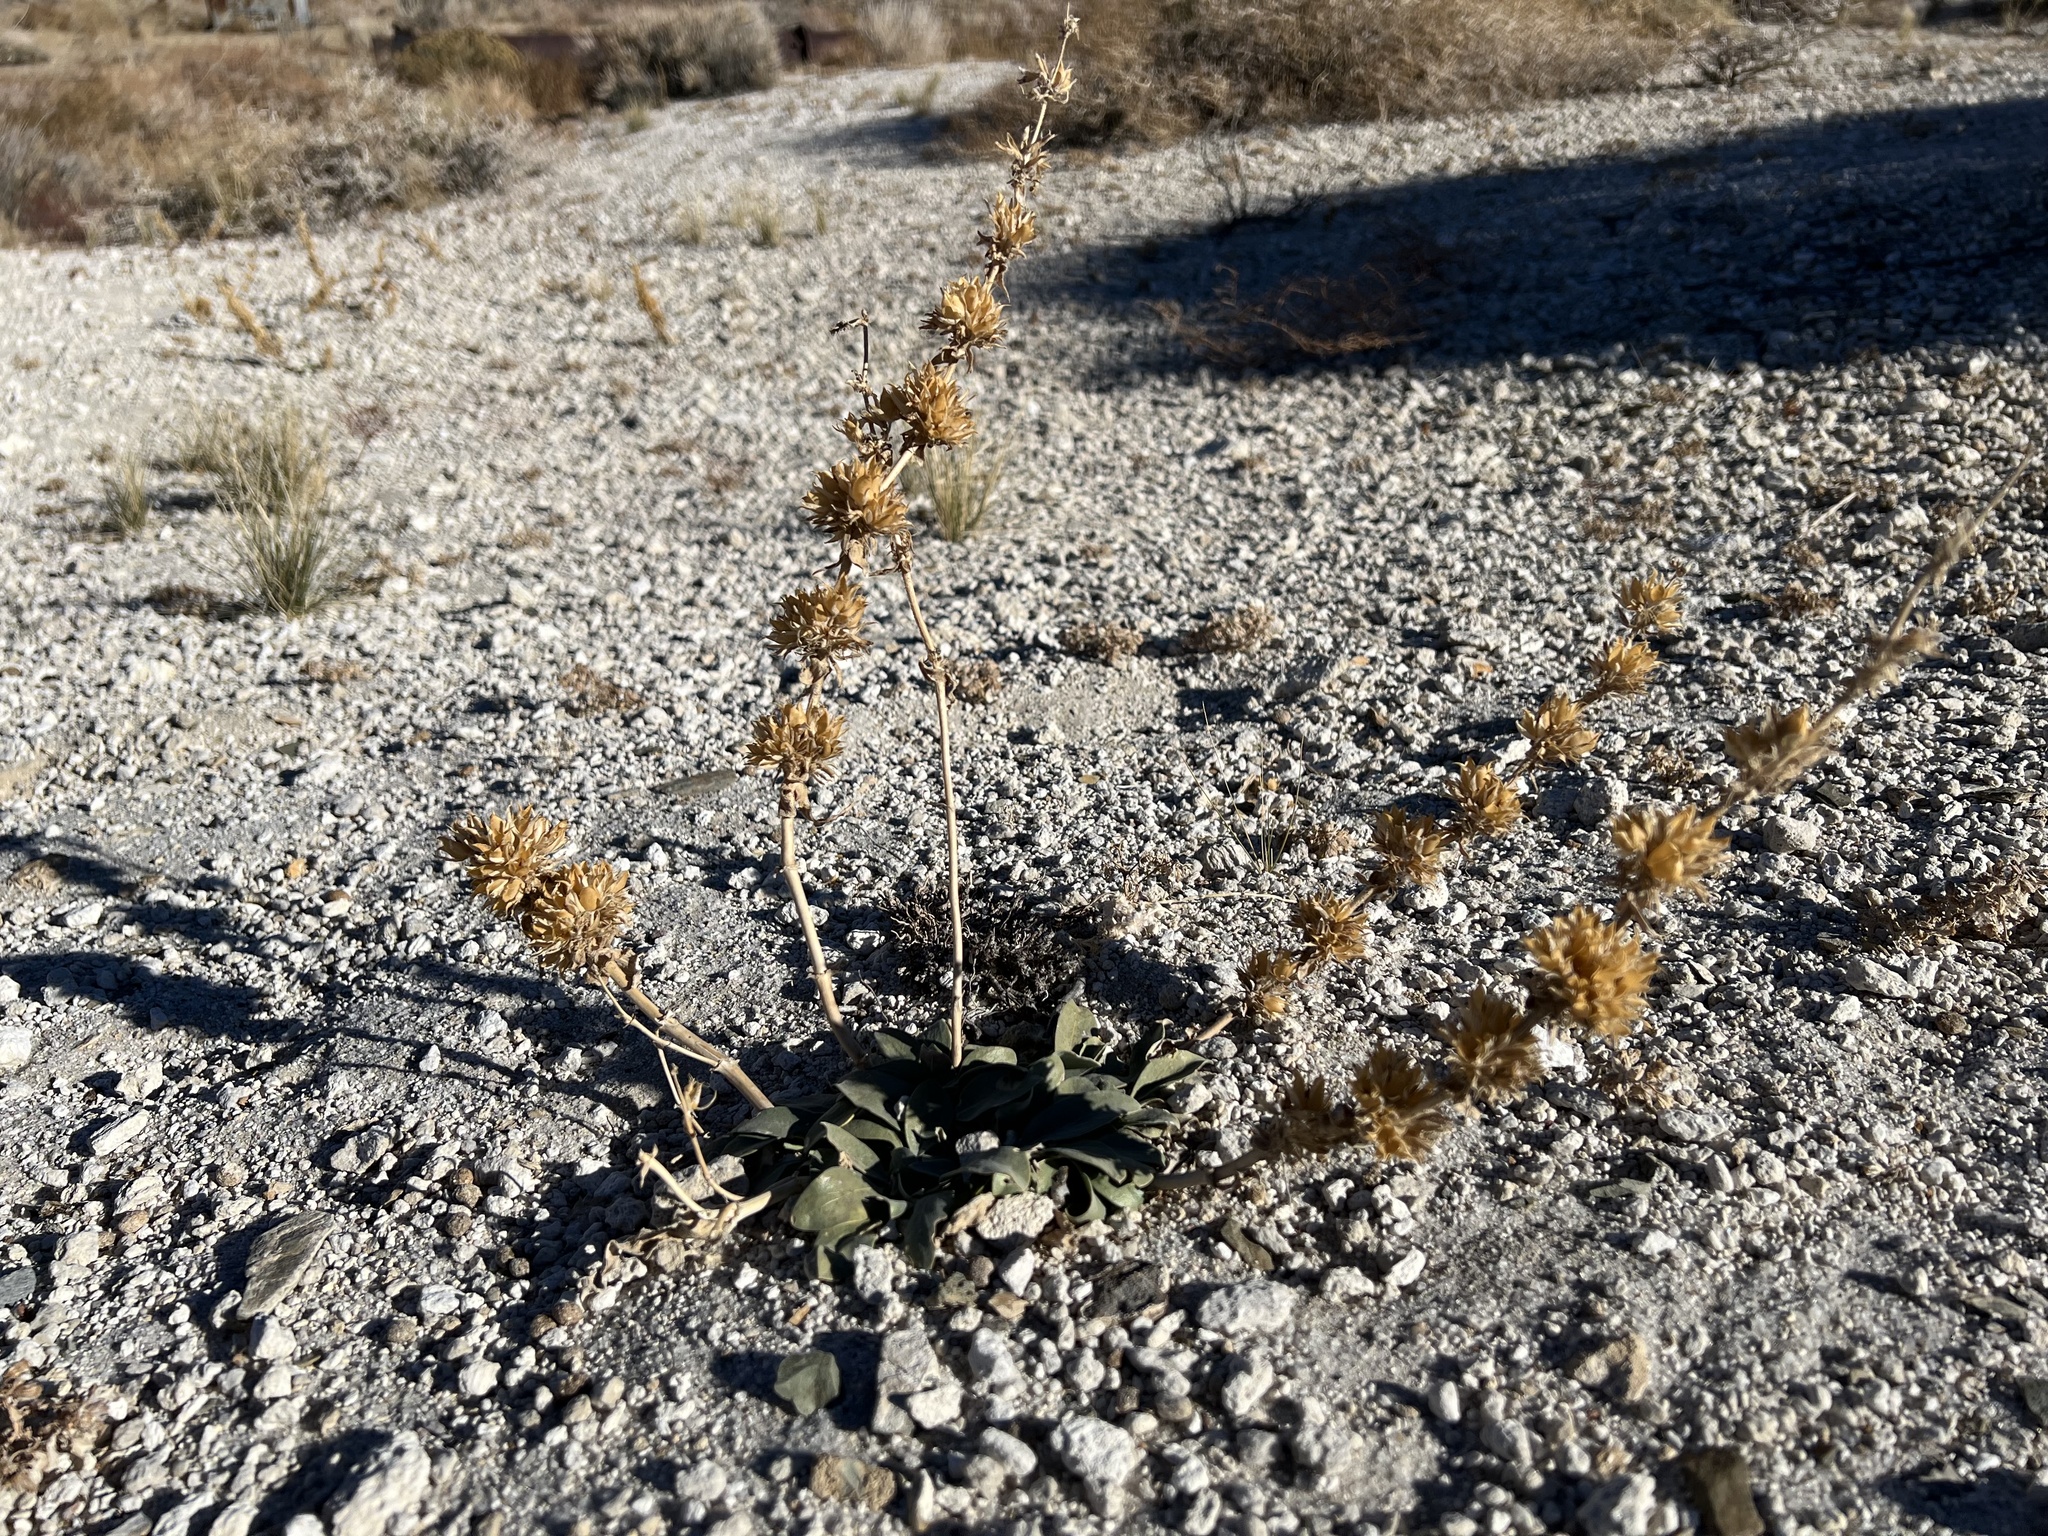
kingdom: Plantae
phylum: Tracheophyta
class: Magnoliopsida
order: Lamiales
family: Plantaginaceae
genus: Penstemon
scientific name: Penstemon monoensis
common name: Mono penstemon
